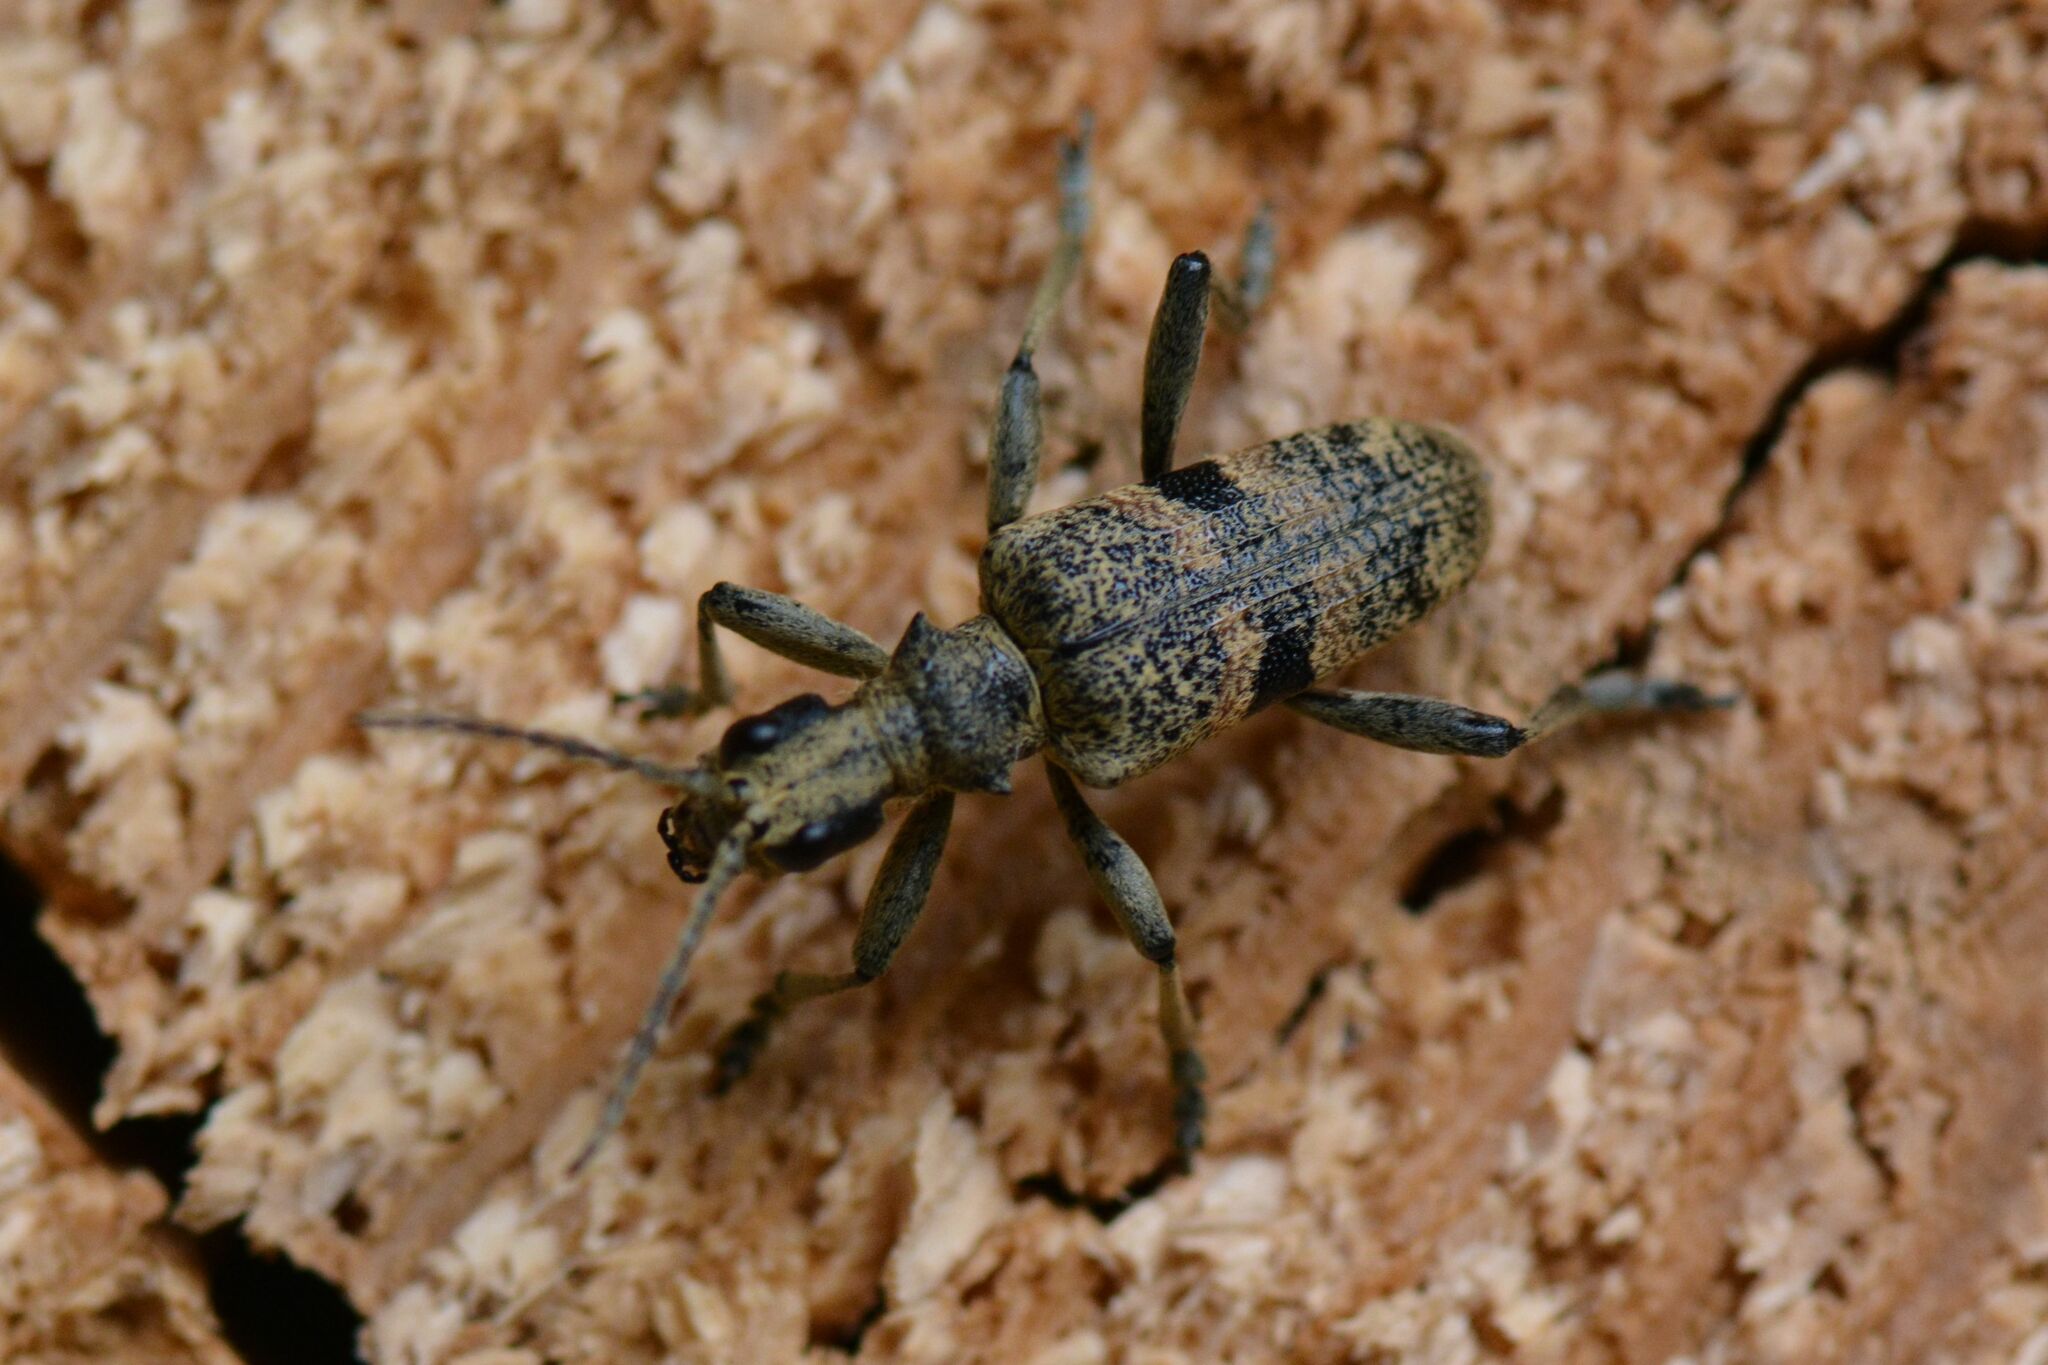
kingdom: Animalia
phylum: Arthropoda
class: Insecta
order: Coleoptera
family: Cerambycidae
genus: Rhagium
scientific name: Rhagium mordax
